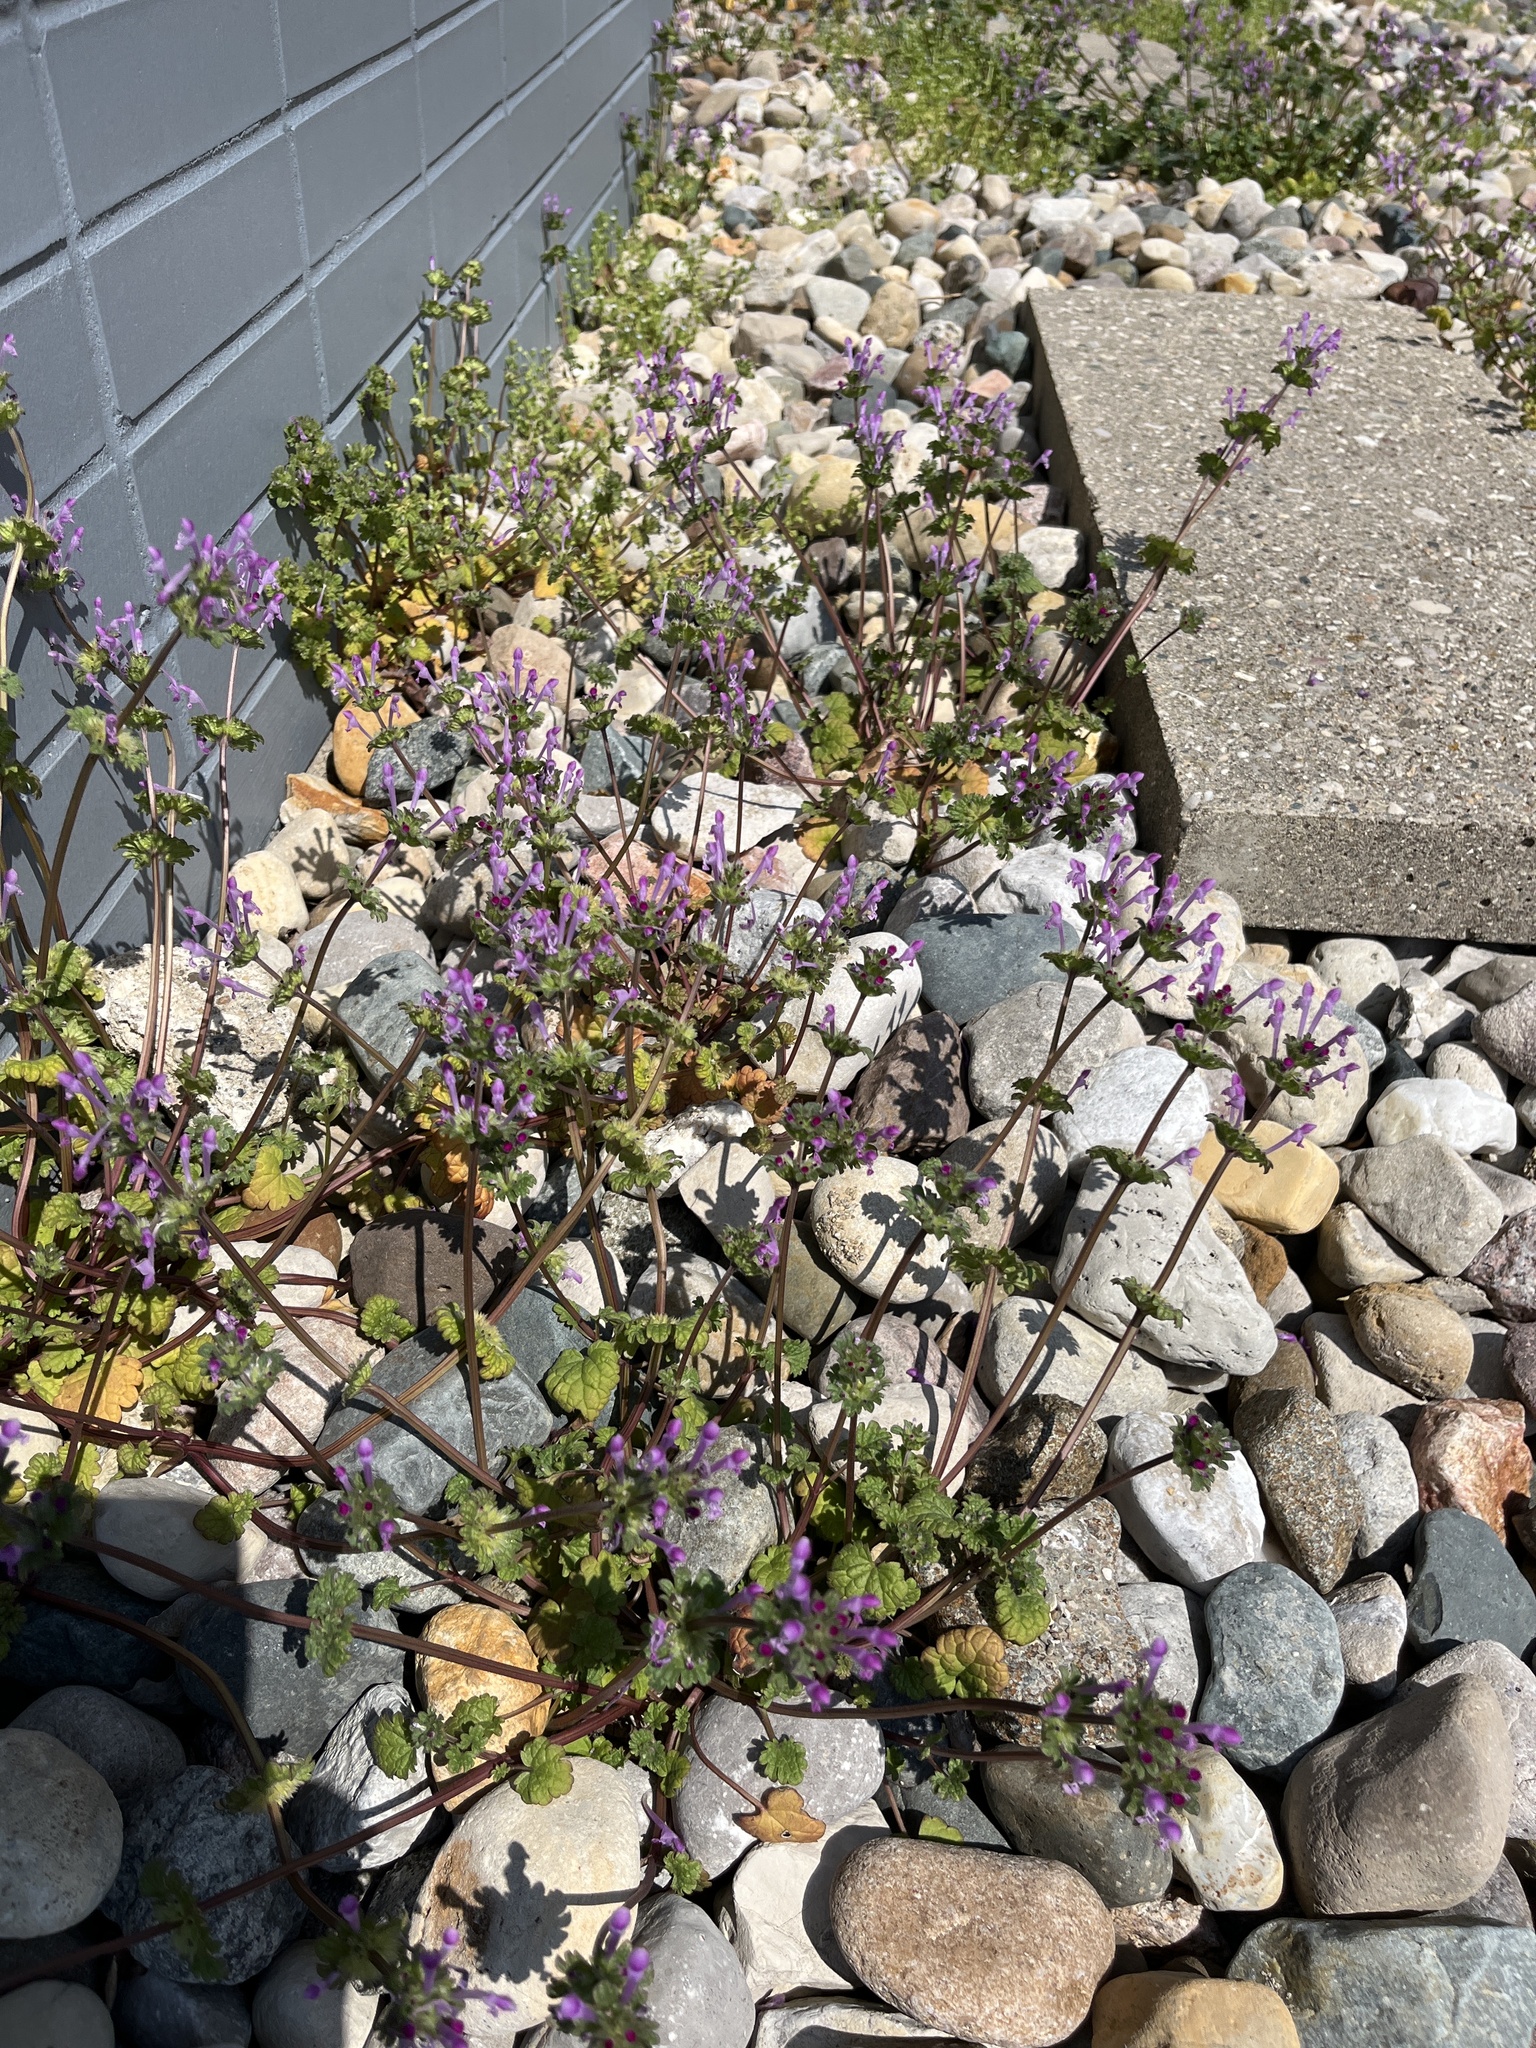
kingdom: Plantae
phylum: Tracheophyta
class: Magnoliopsida
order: Lamiales
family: Lamiaceae
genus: Lamium
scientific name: Lamium amplexicaule
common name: Henbit dead-nettle
